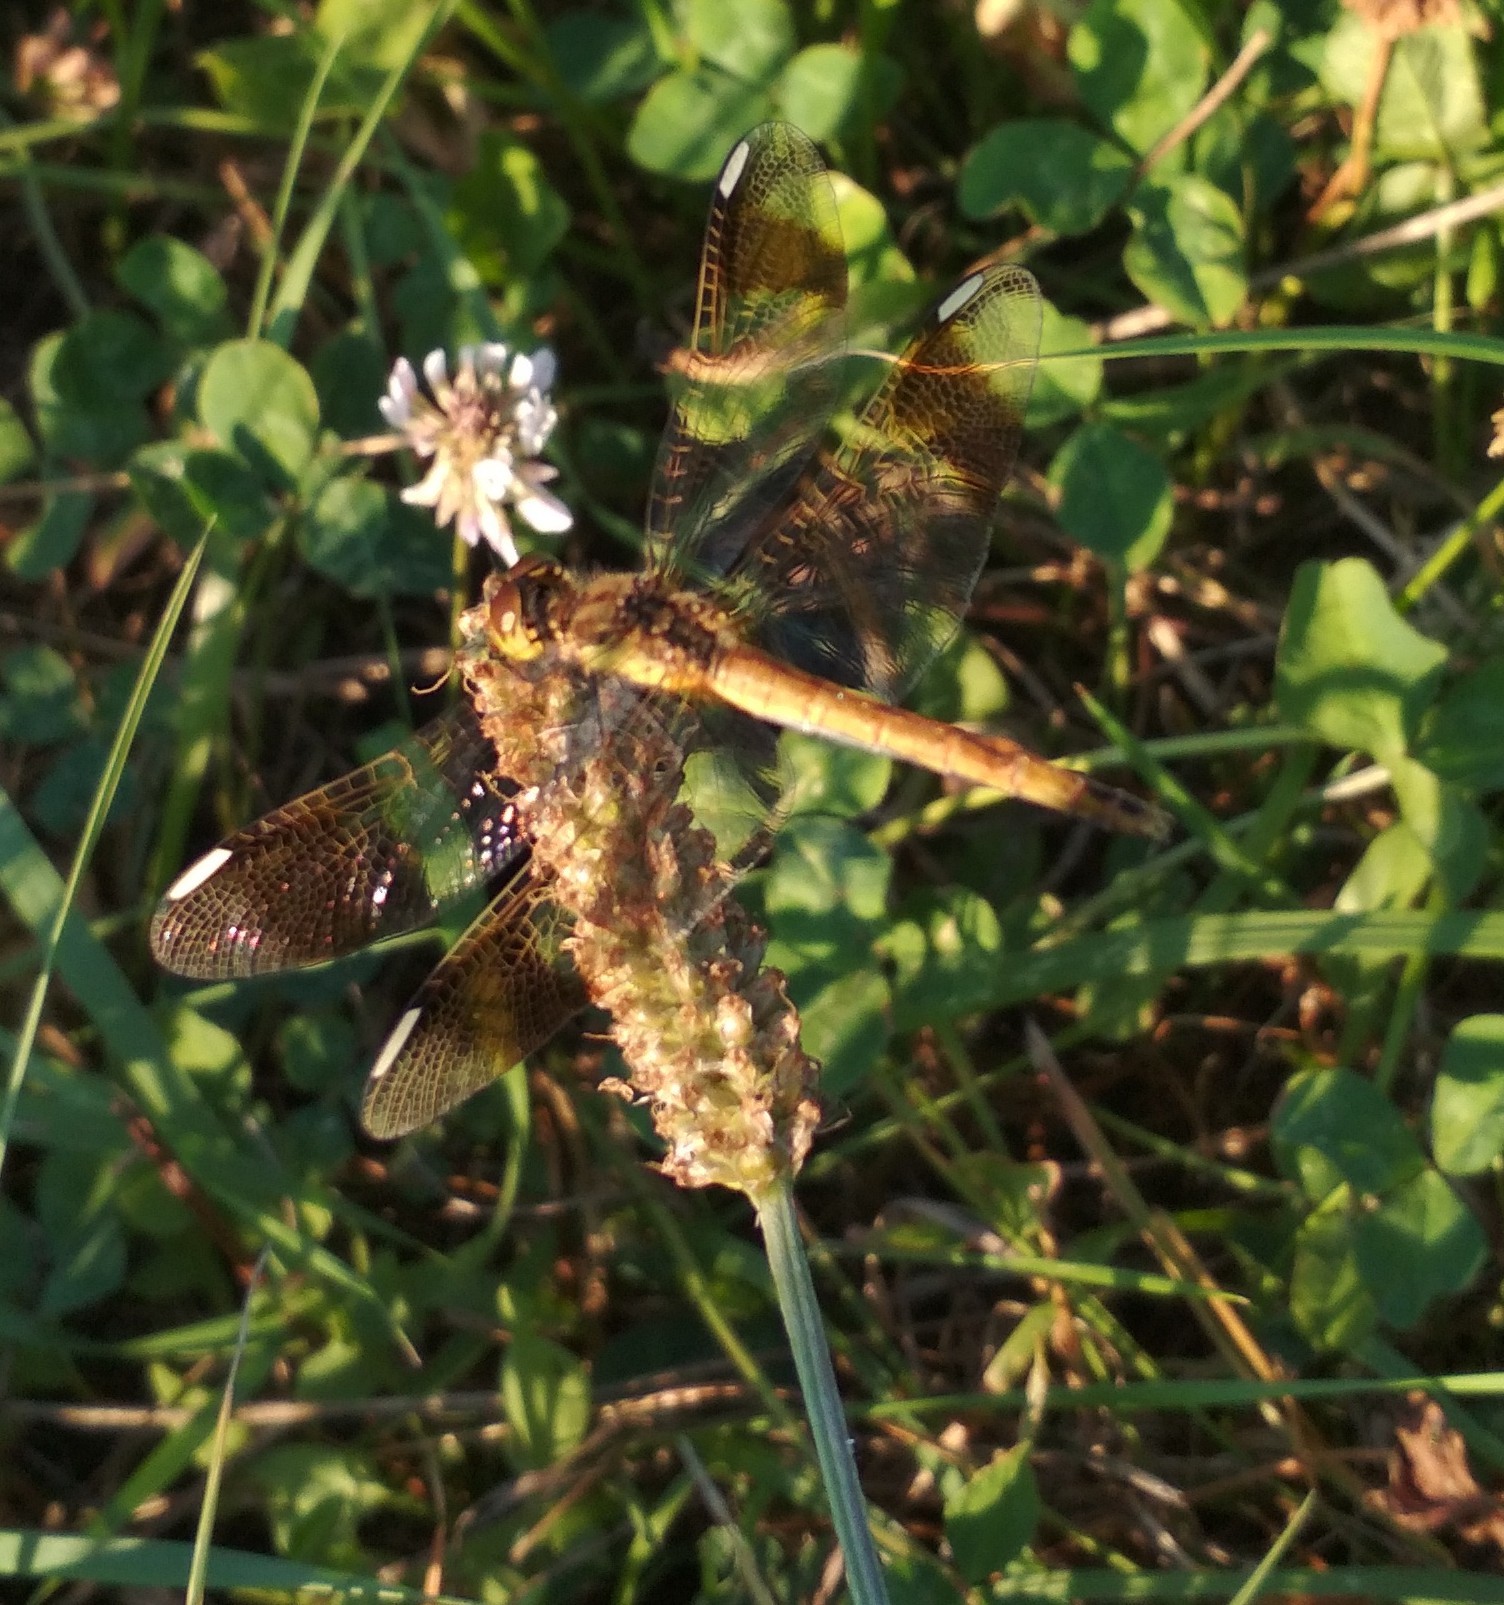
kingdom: Animalia
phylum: Arthropoda
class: Insecta
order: Odonata
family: Libellulidae
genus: Sympetrum
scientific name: Sympetrum pedemontanum
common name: Banded darter
